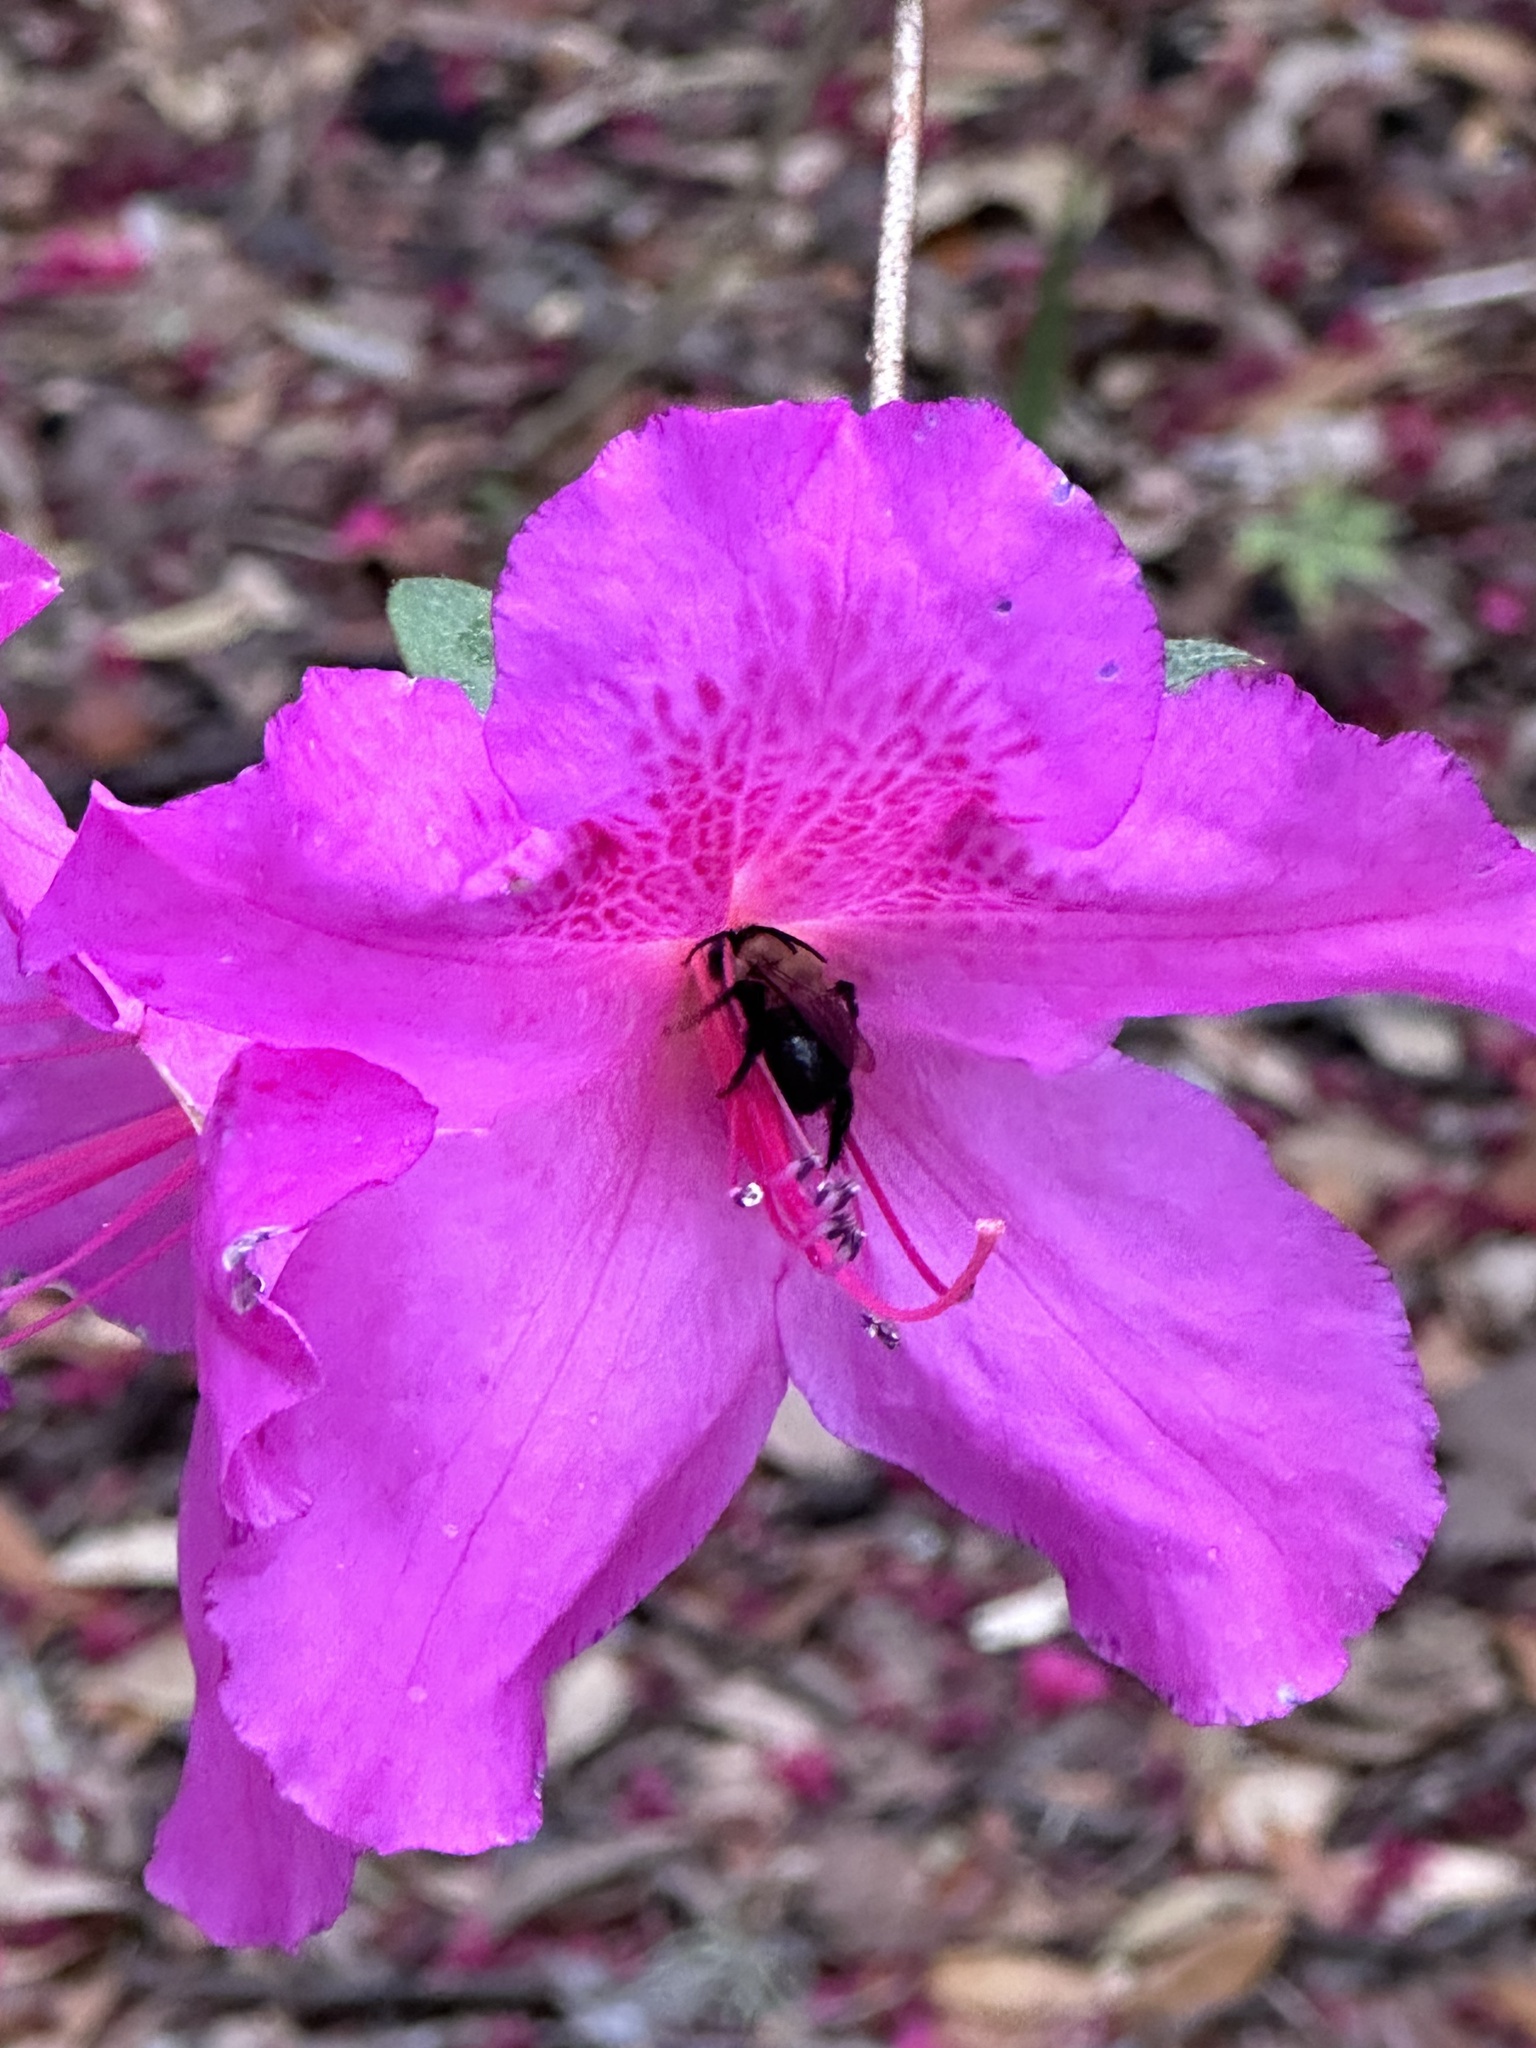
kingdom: Animalia
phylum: Arthropoda
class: Insecta
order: Hymenoptera
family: Apidae
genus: Habropoda
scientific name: Habropoda laboriosa
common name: Southeastern blueberry bee
